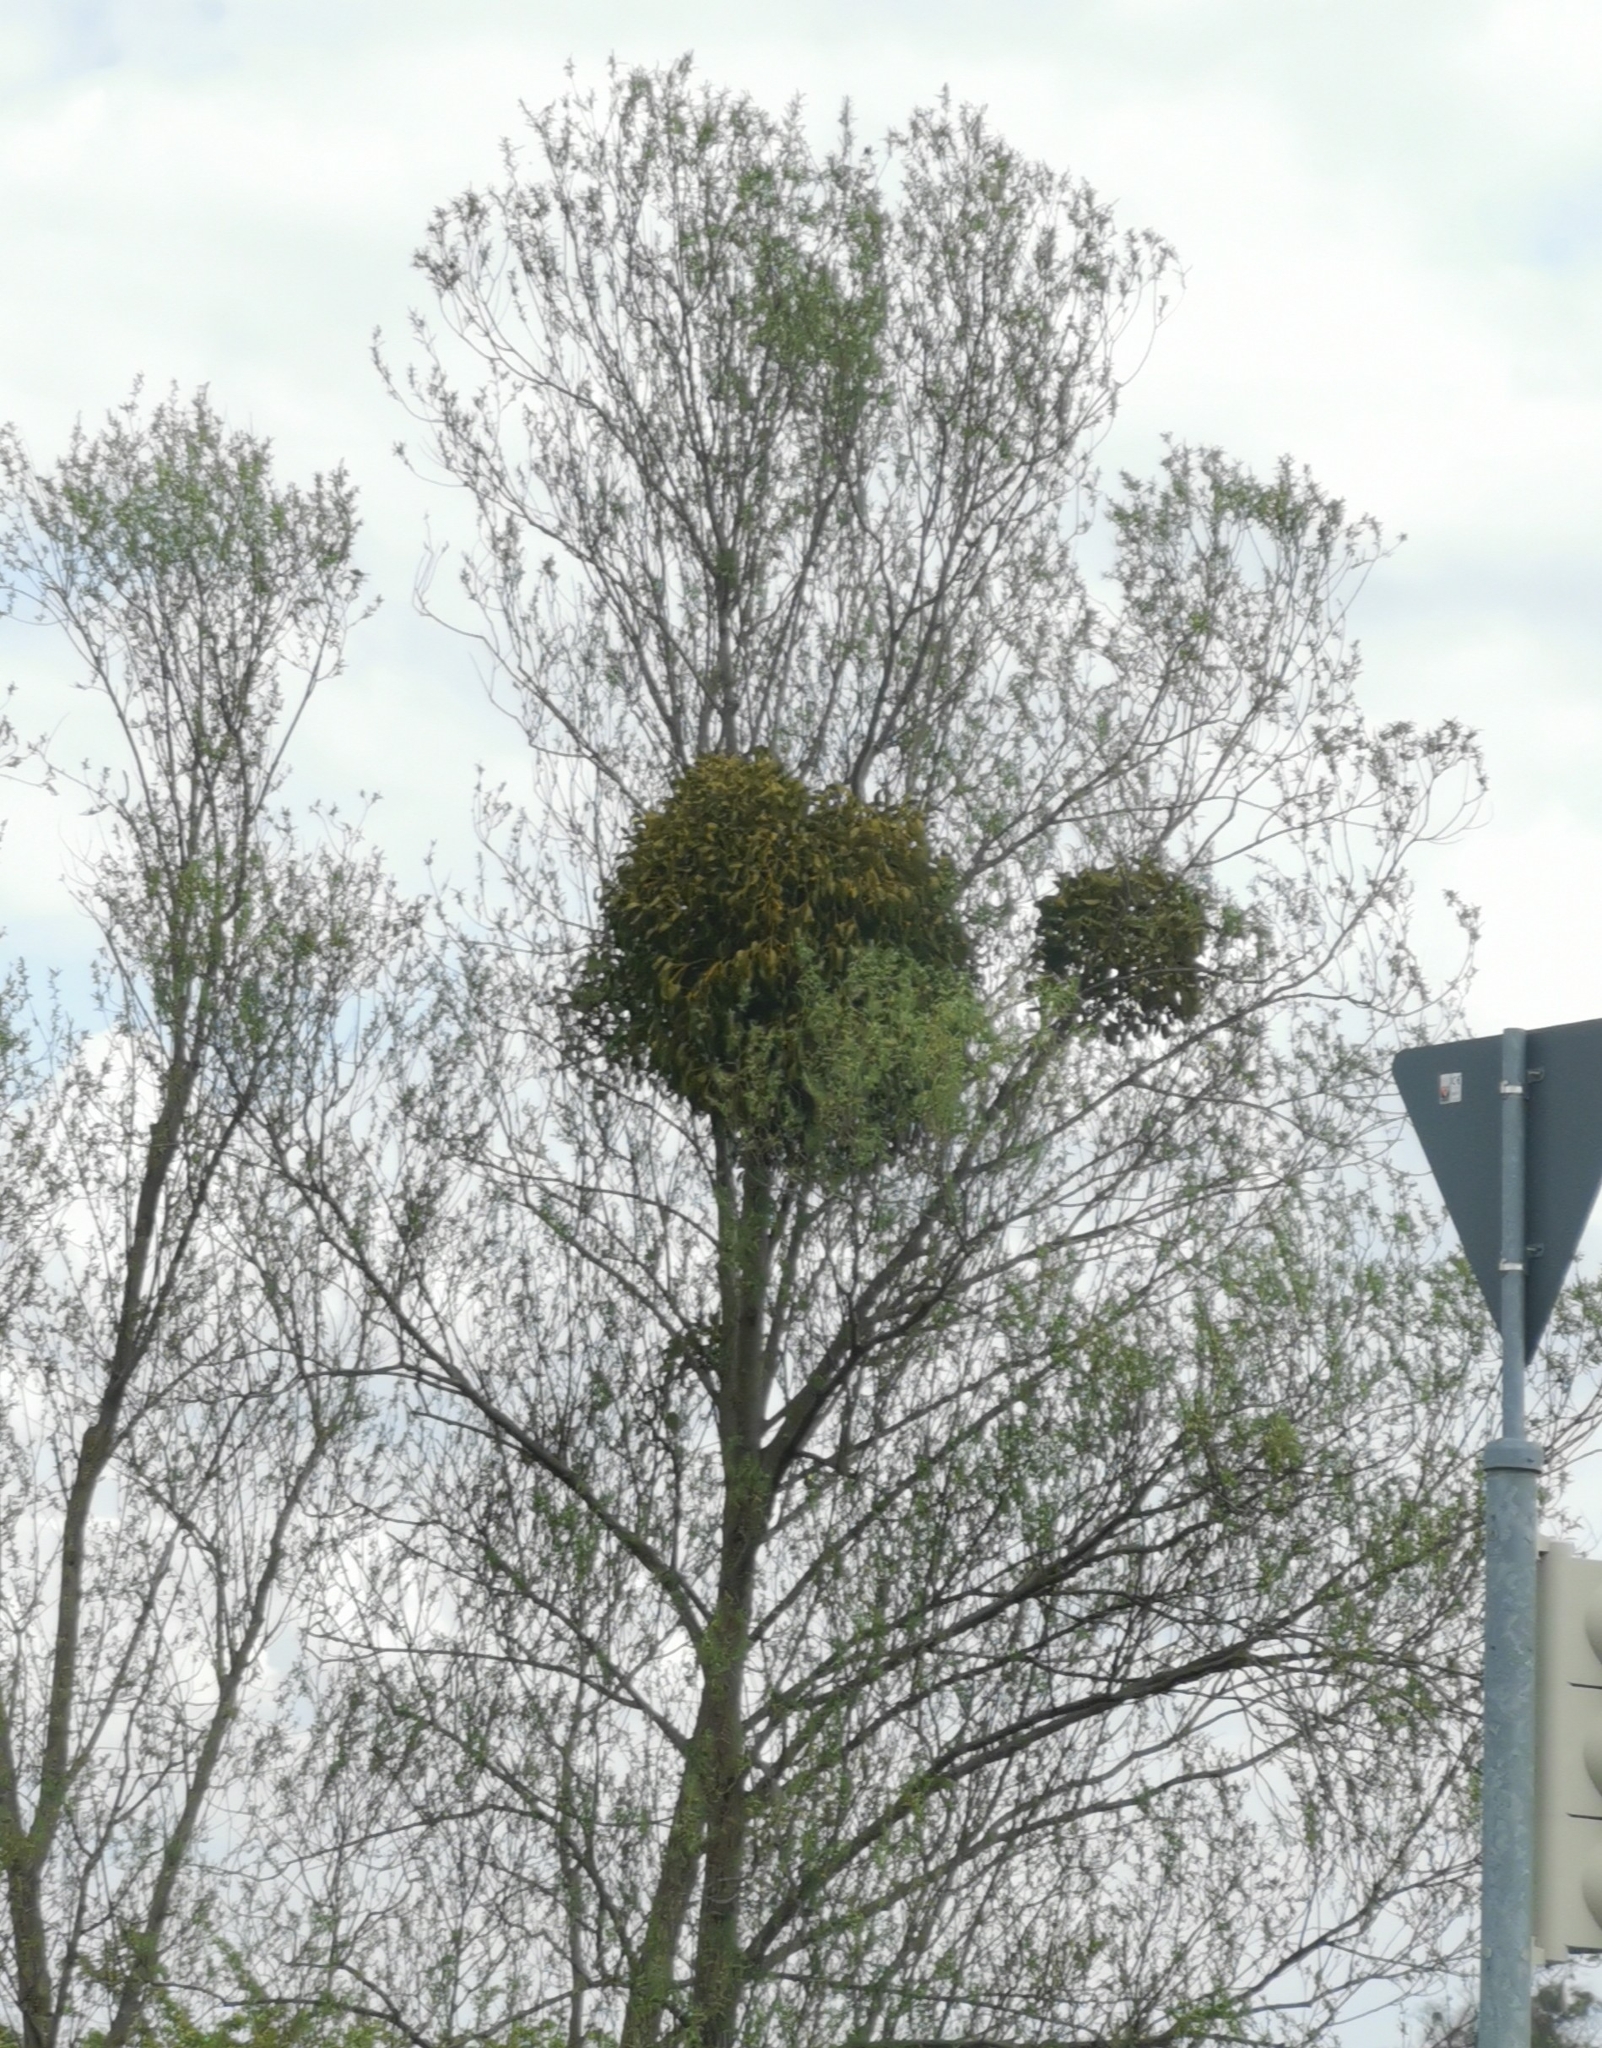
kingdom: Plantae
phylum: Tracheophyta
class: Magnoliopsida
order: Santalales
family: Viscaceae
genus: Viscum
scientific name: Viscum album
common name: Mistletoe
